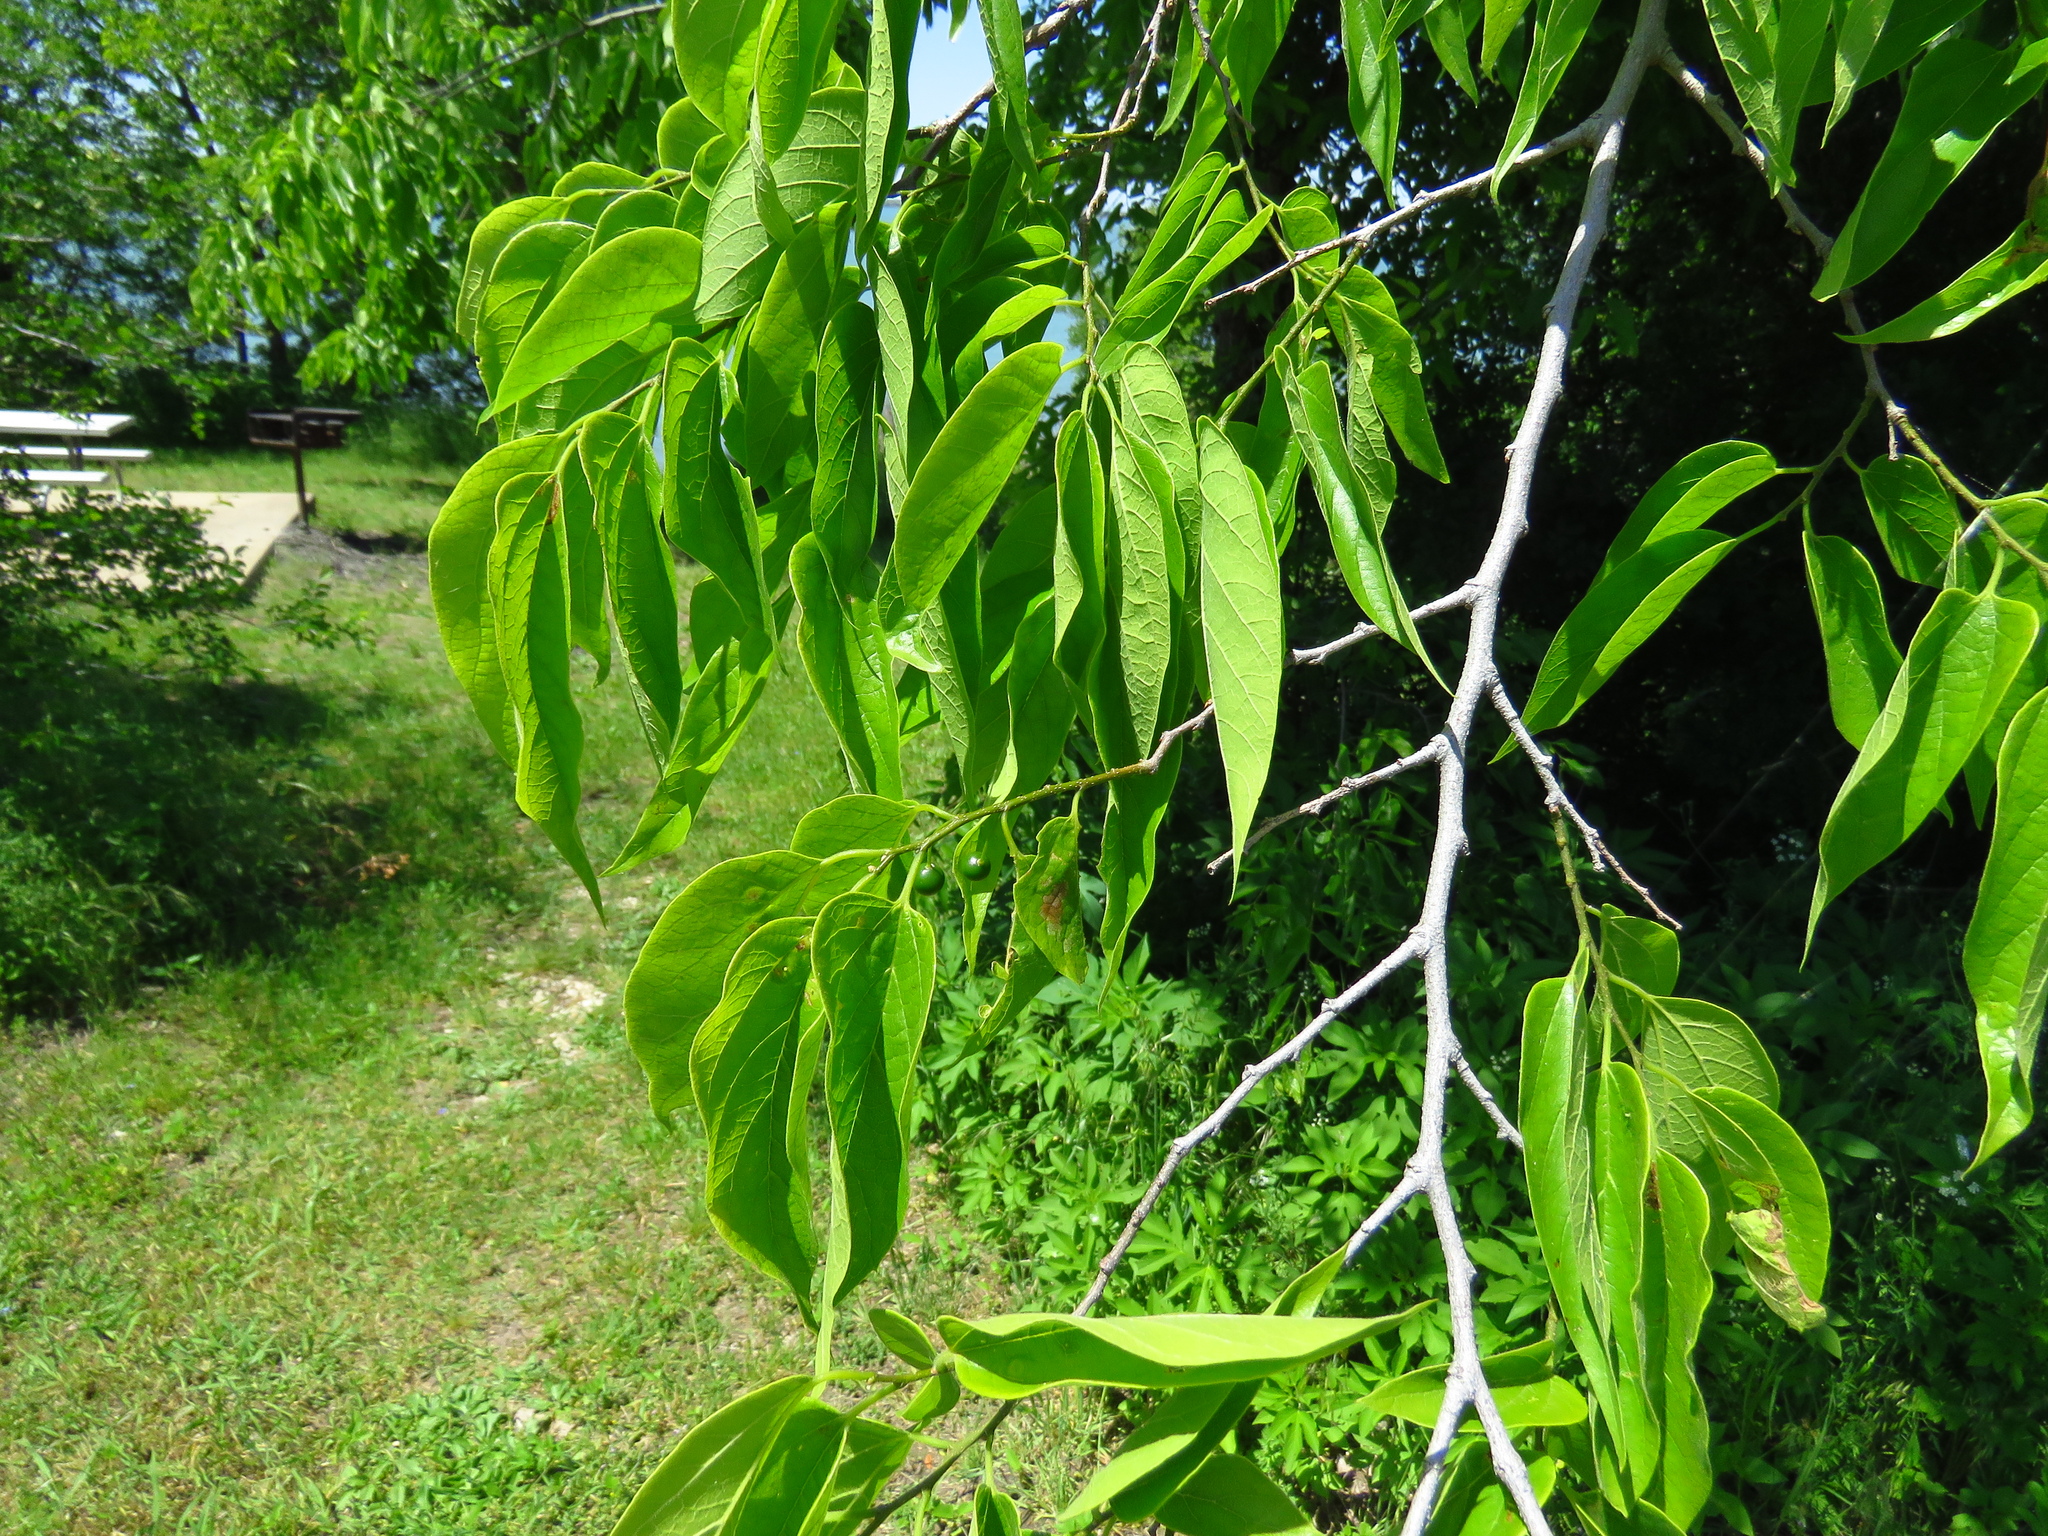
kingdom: Plantae
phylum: Tracheophyta
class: Magnoliopsida
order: Rosales
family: Cannabaceae
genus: Celtis
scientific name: Celtis laevigata
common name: Sugarberry
